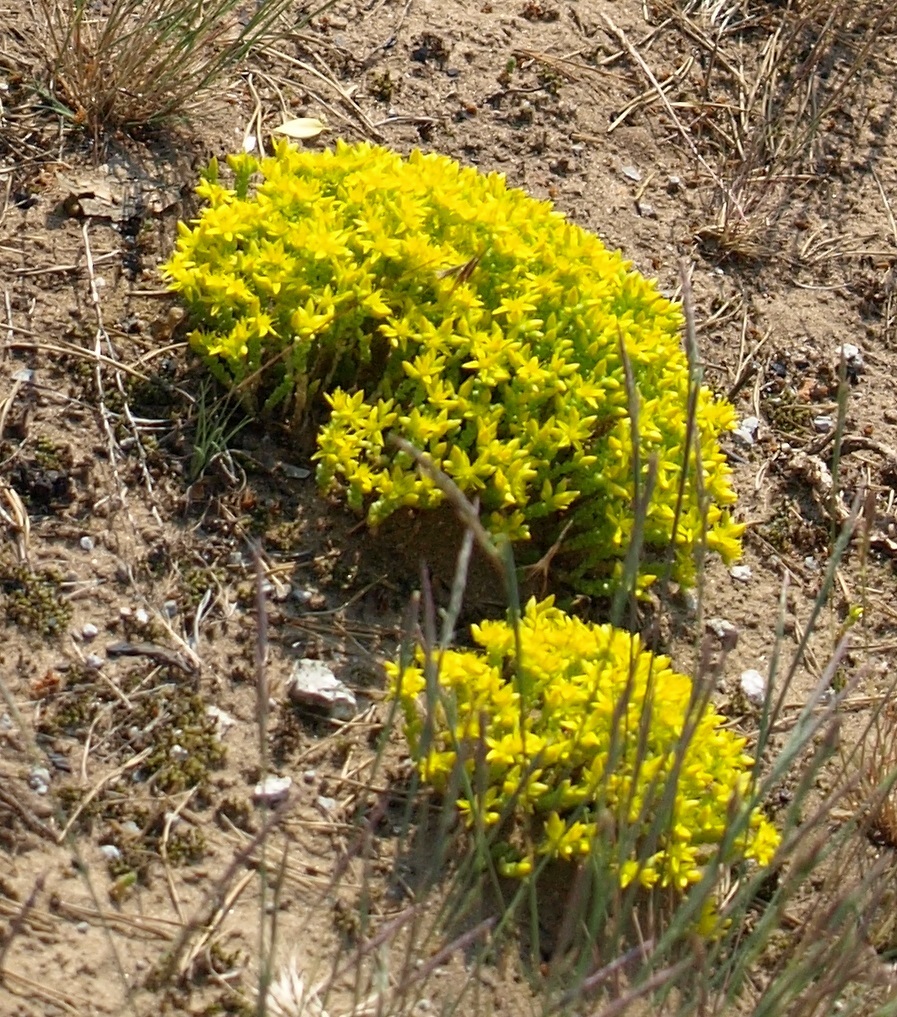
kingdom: Plantae
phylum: Tracheophyta
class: Magnoliopsida
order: Saxifragales
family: Crassulaceae
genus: Sedum
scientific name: Sedum acre
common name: Biting stonecrop
